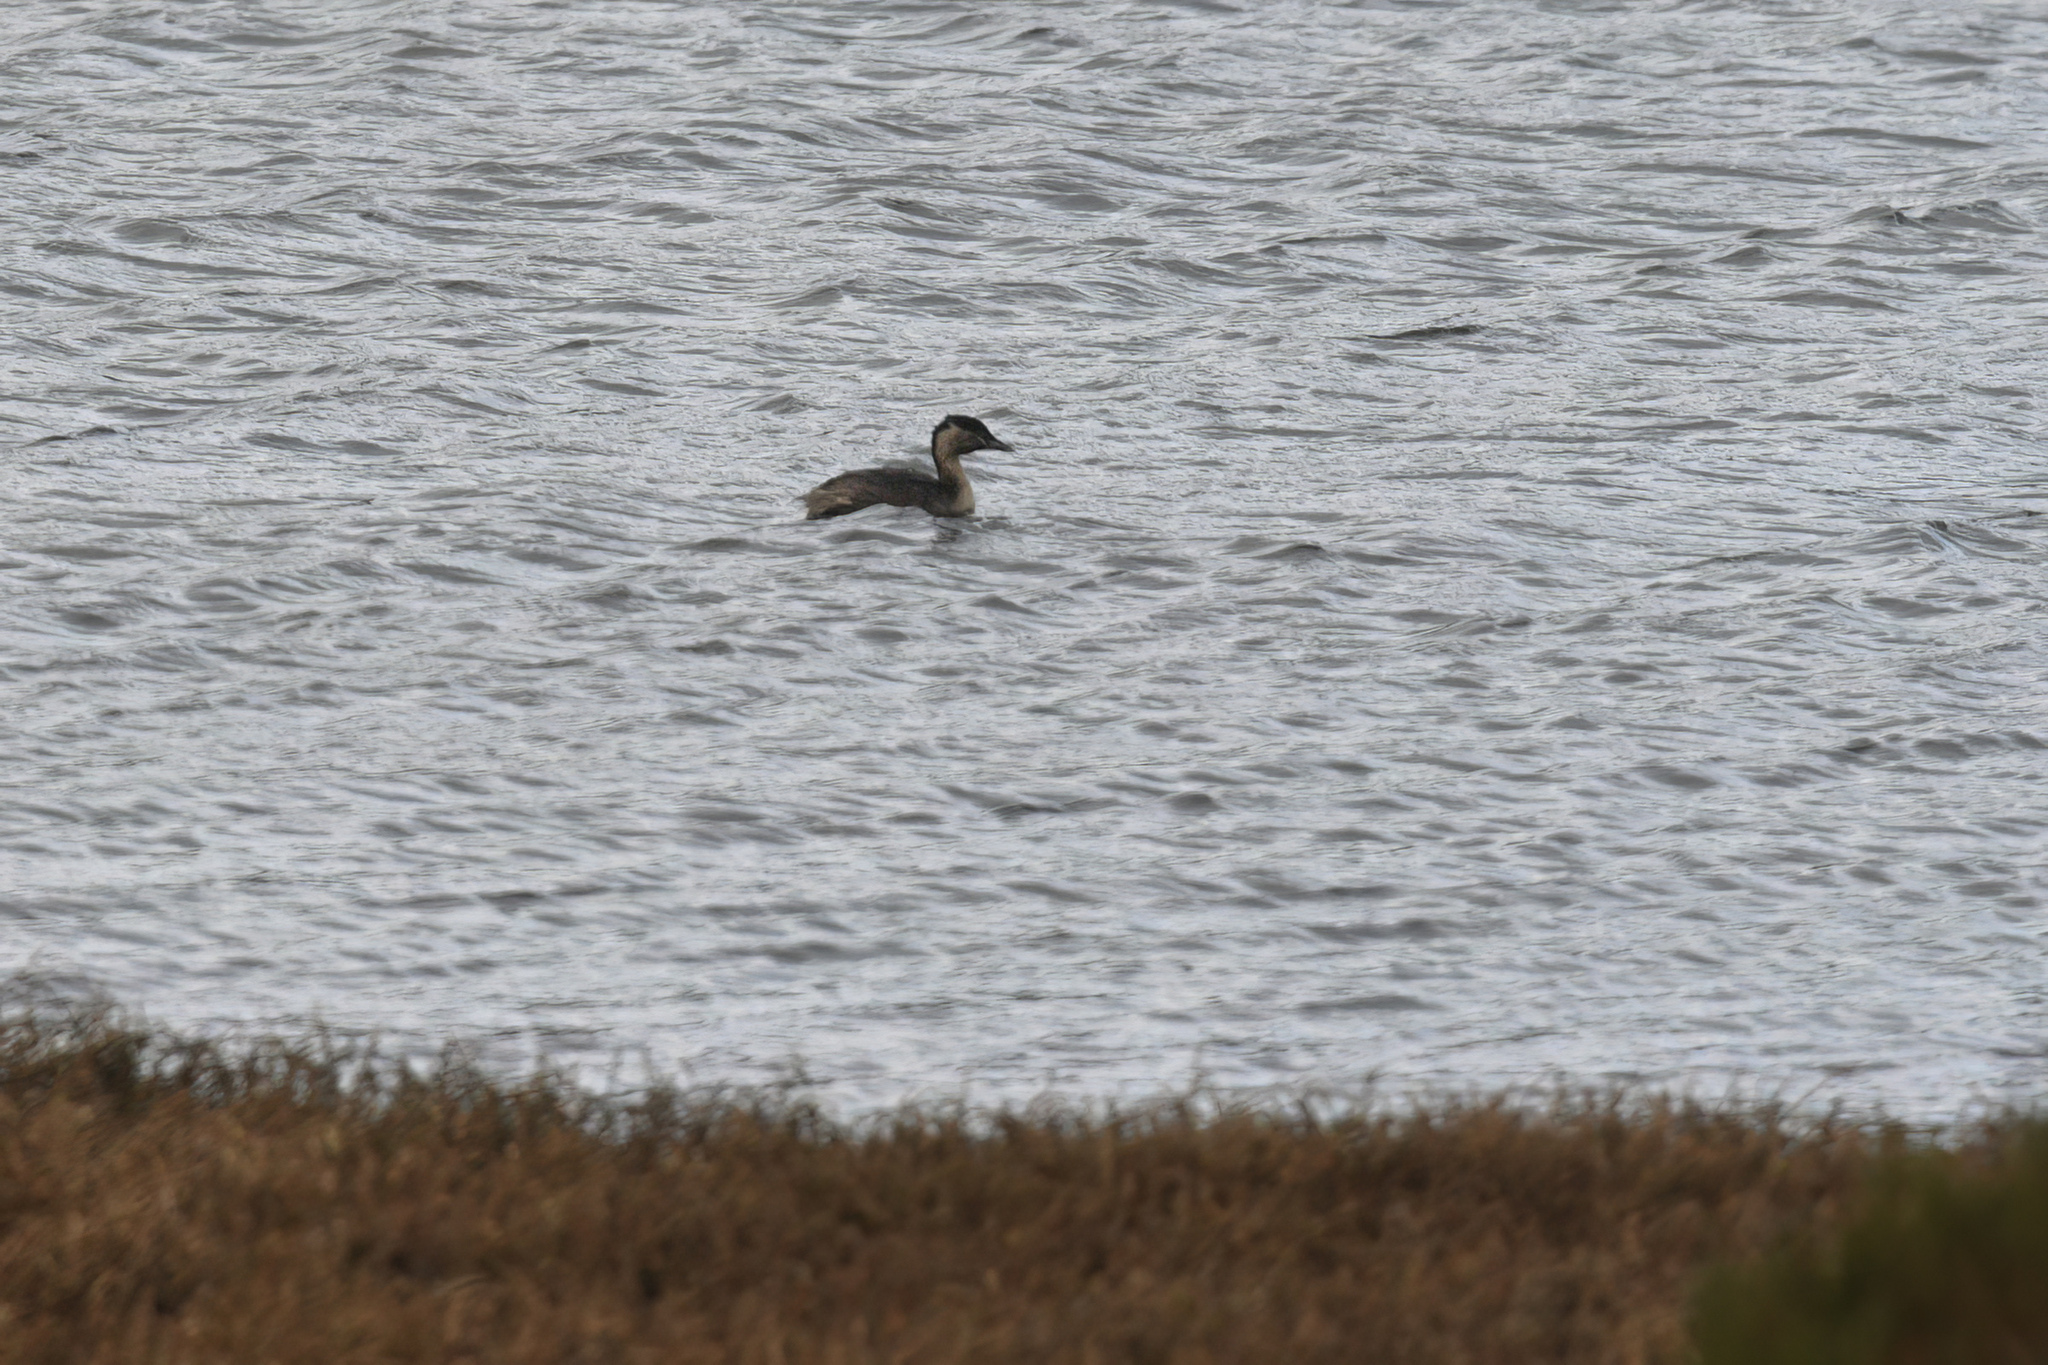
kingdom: Animalia
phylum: Chordata
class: Aves
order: Podicipediformes
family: Podicipedidae
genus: Poliocephalus
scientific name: Poliocephalus poliocephalus
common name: Hoary-headed grebe
